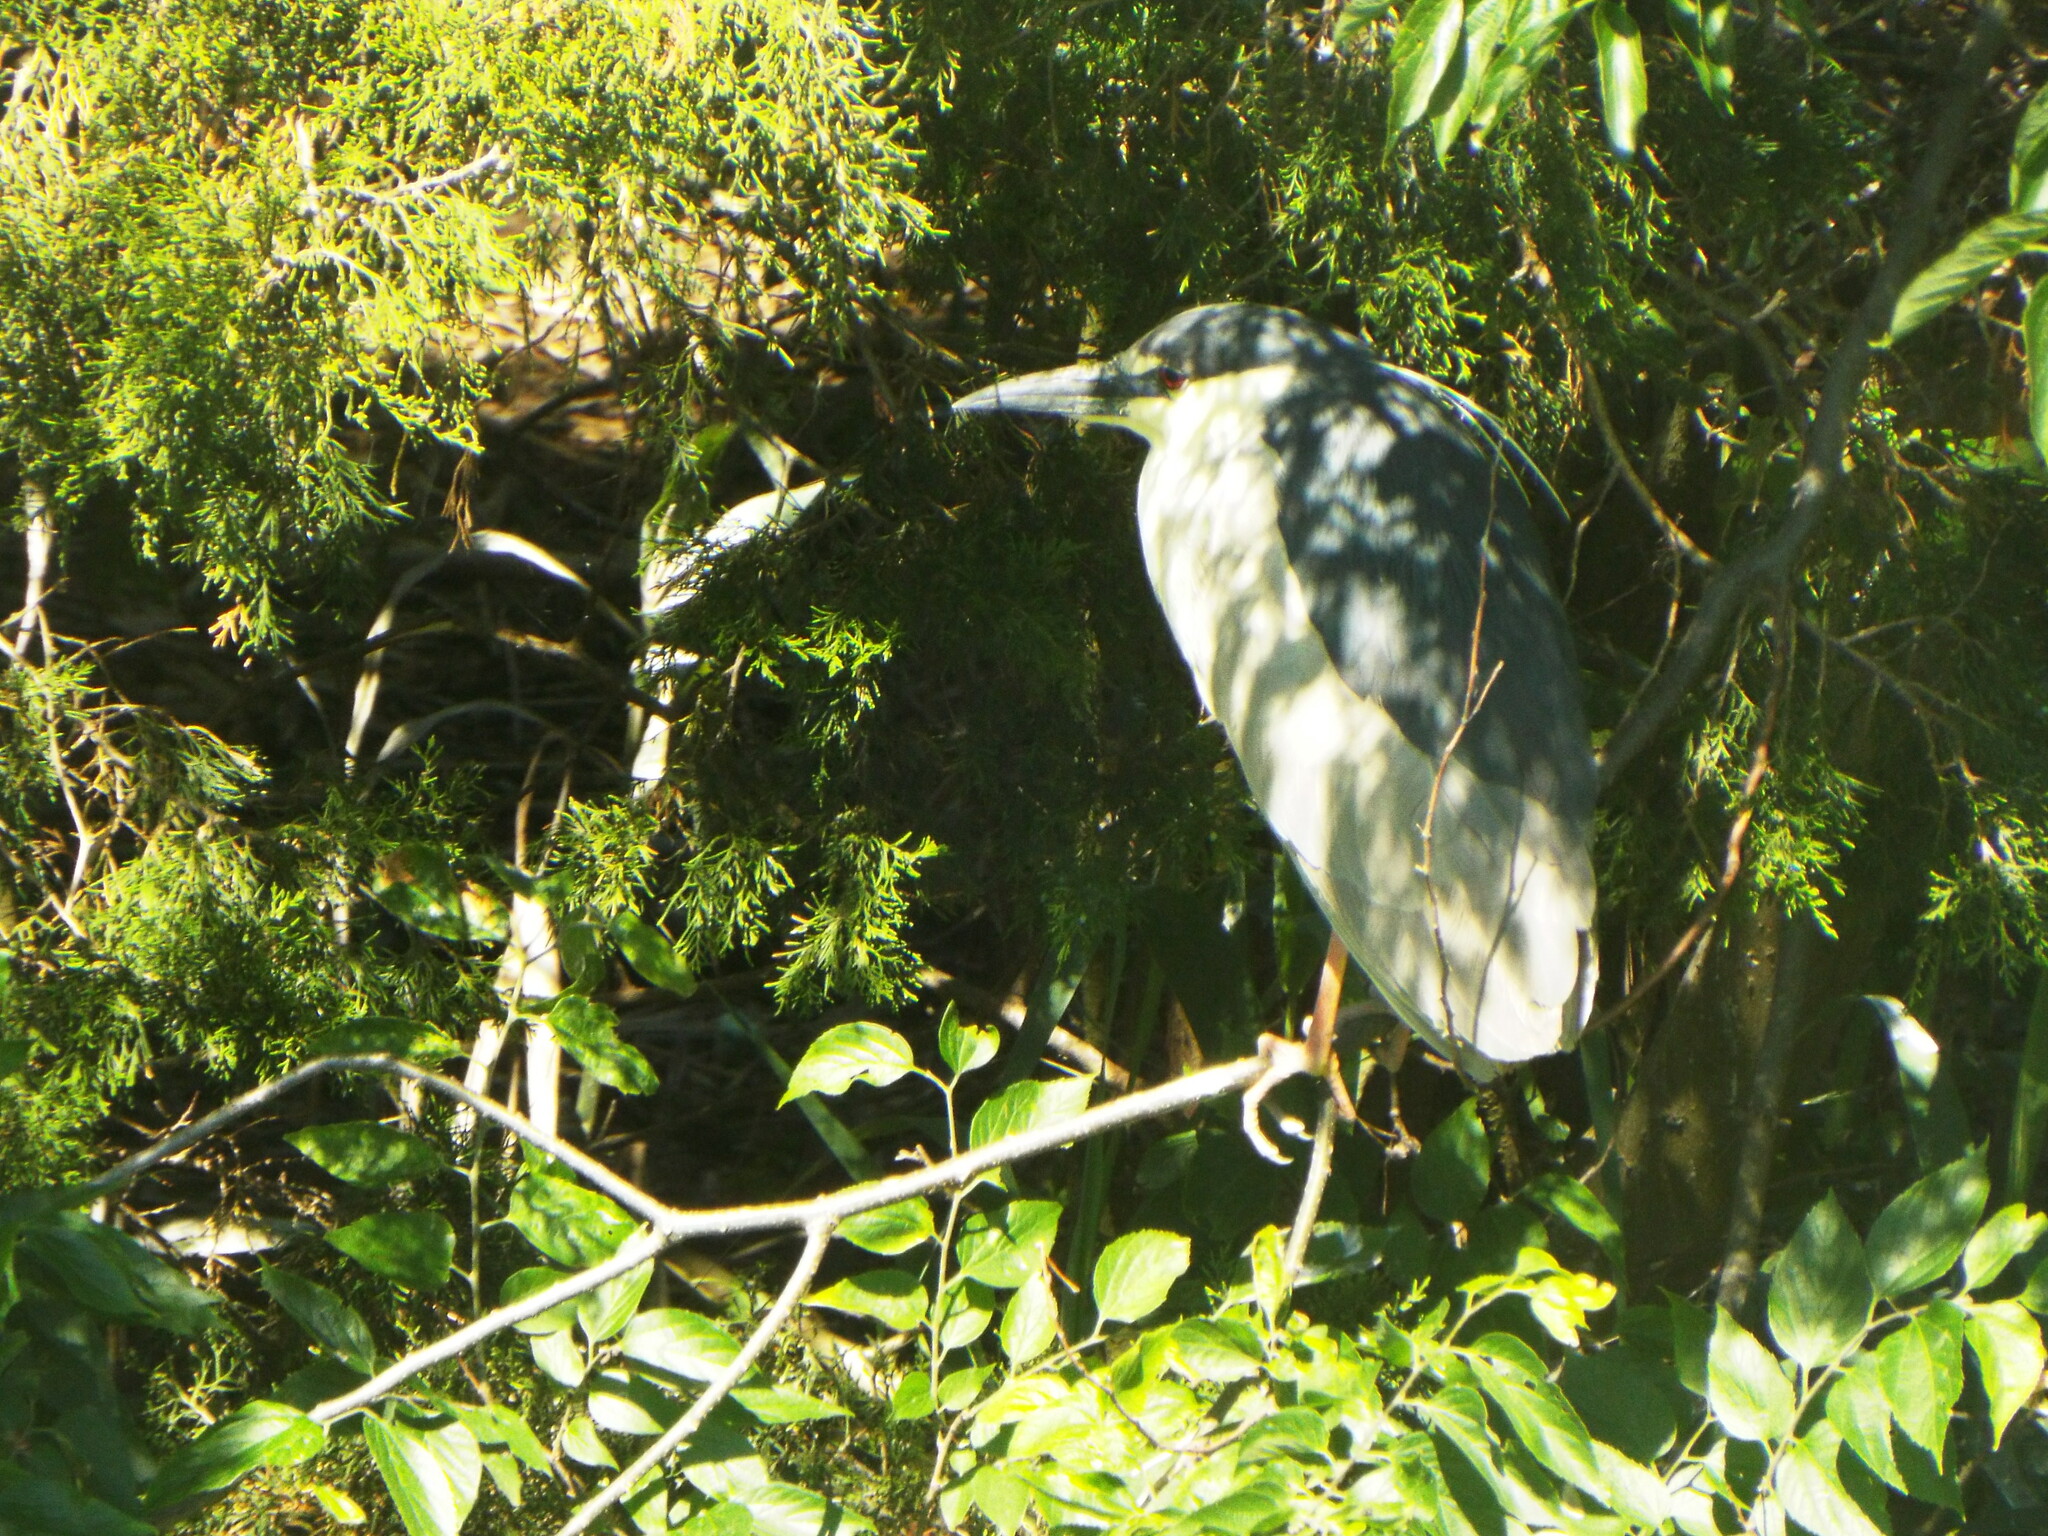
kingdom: Animalia
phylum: Chordata
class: Aves
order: Pelecaniformes
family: Ardeidae
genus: Nycticorax
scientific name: Nycticorax nycticorax
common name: Black-crowned night heron
